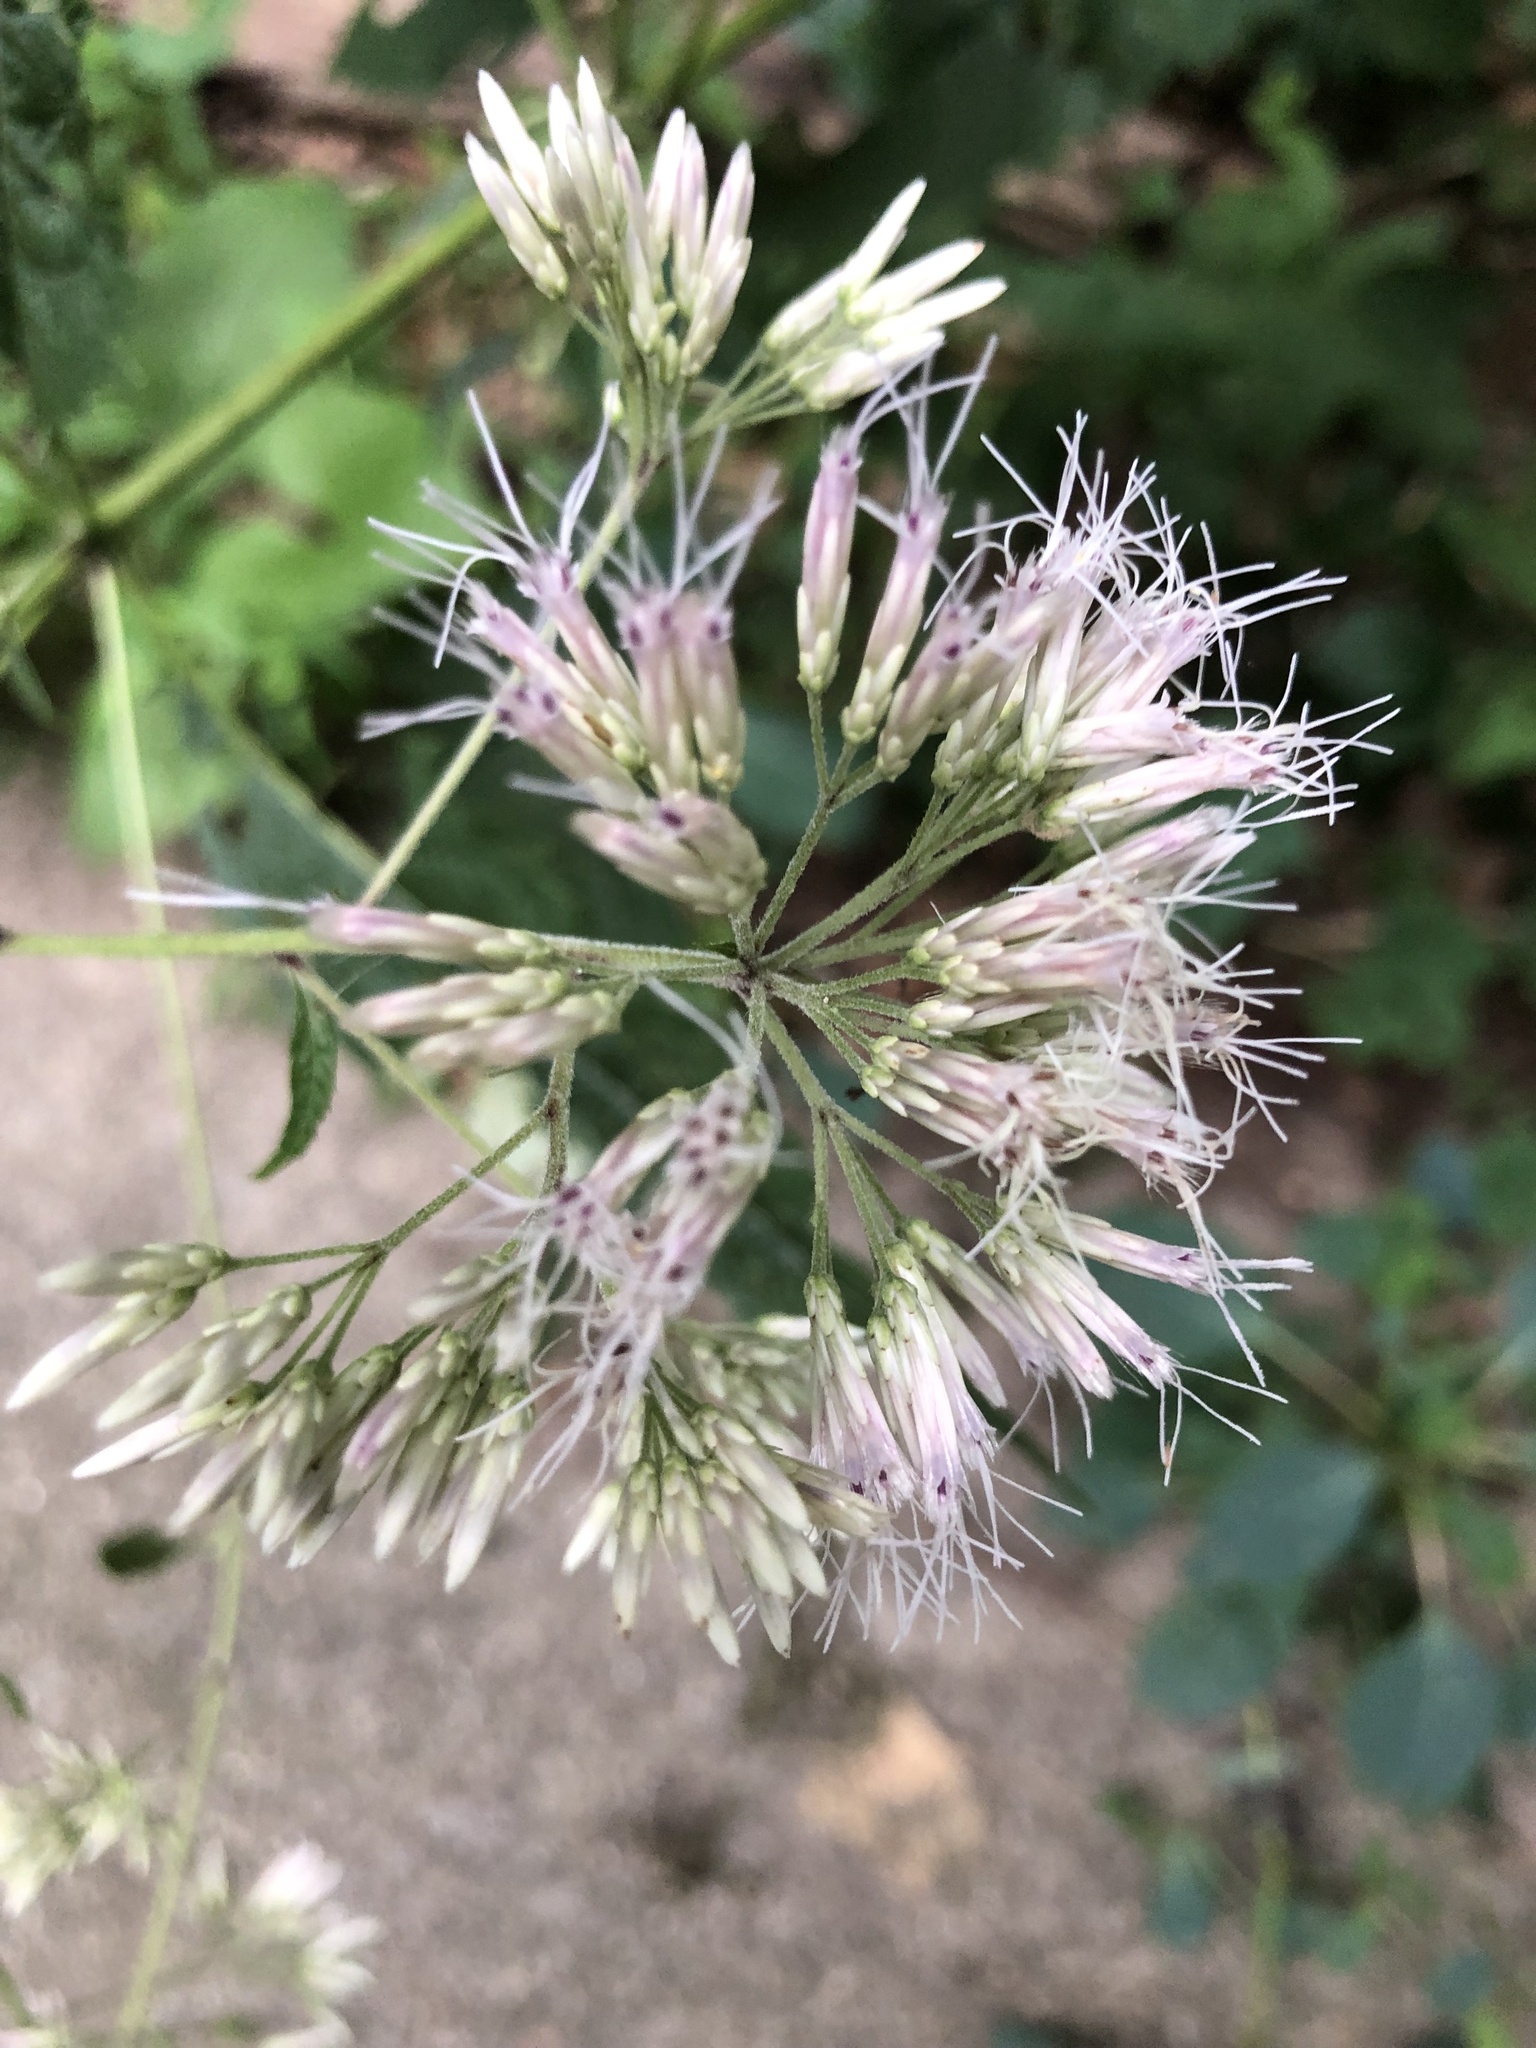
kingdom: Plantae
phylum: Tracheophyta
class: Magnoliopsida
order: Asterales
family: Asteraceae
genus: Eutrochium
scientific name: Eutrochium purpureum
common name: Gravelroot
